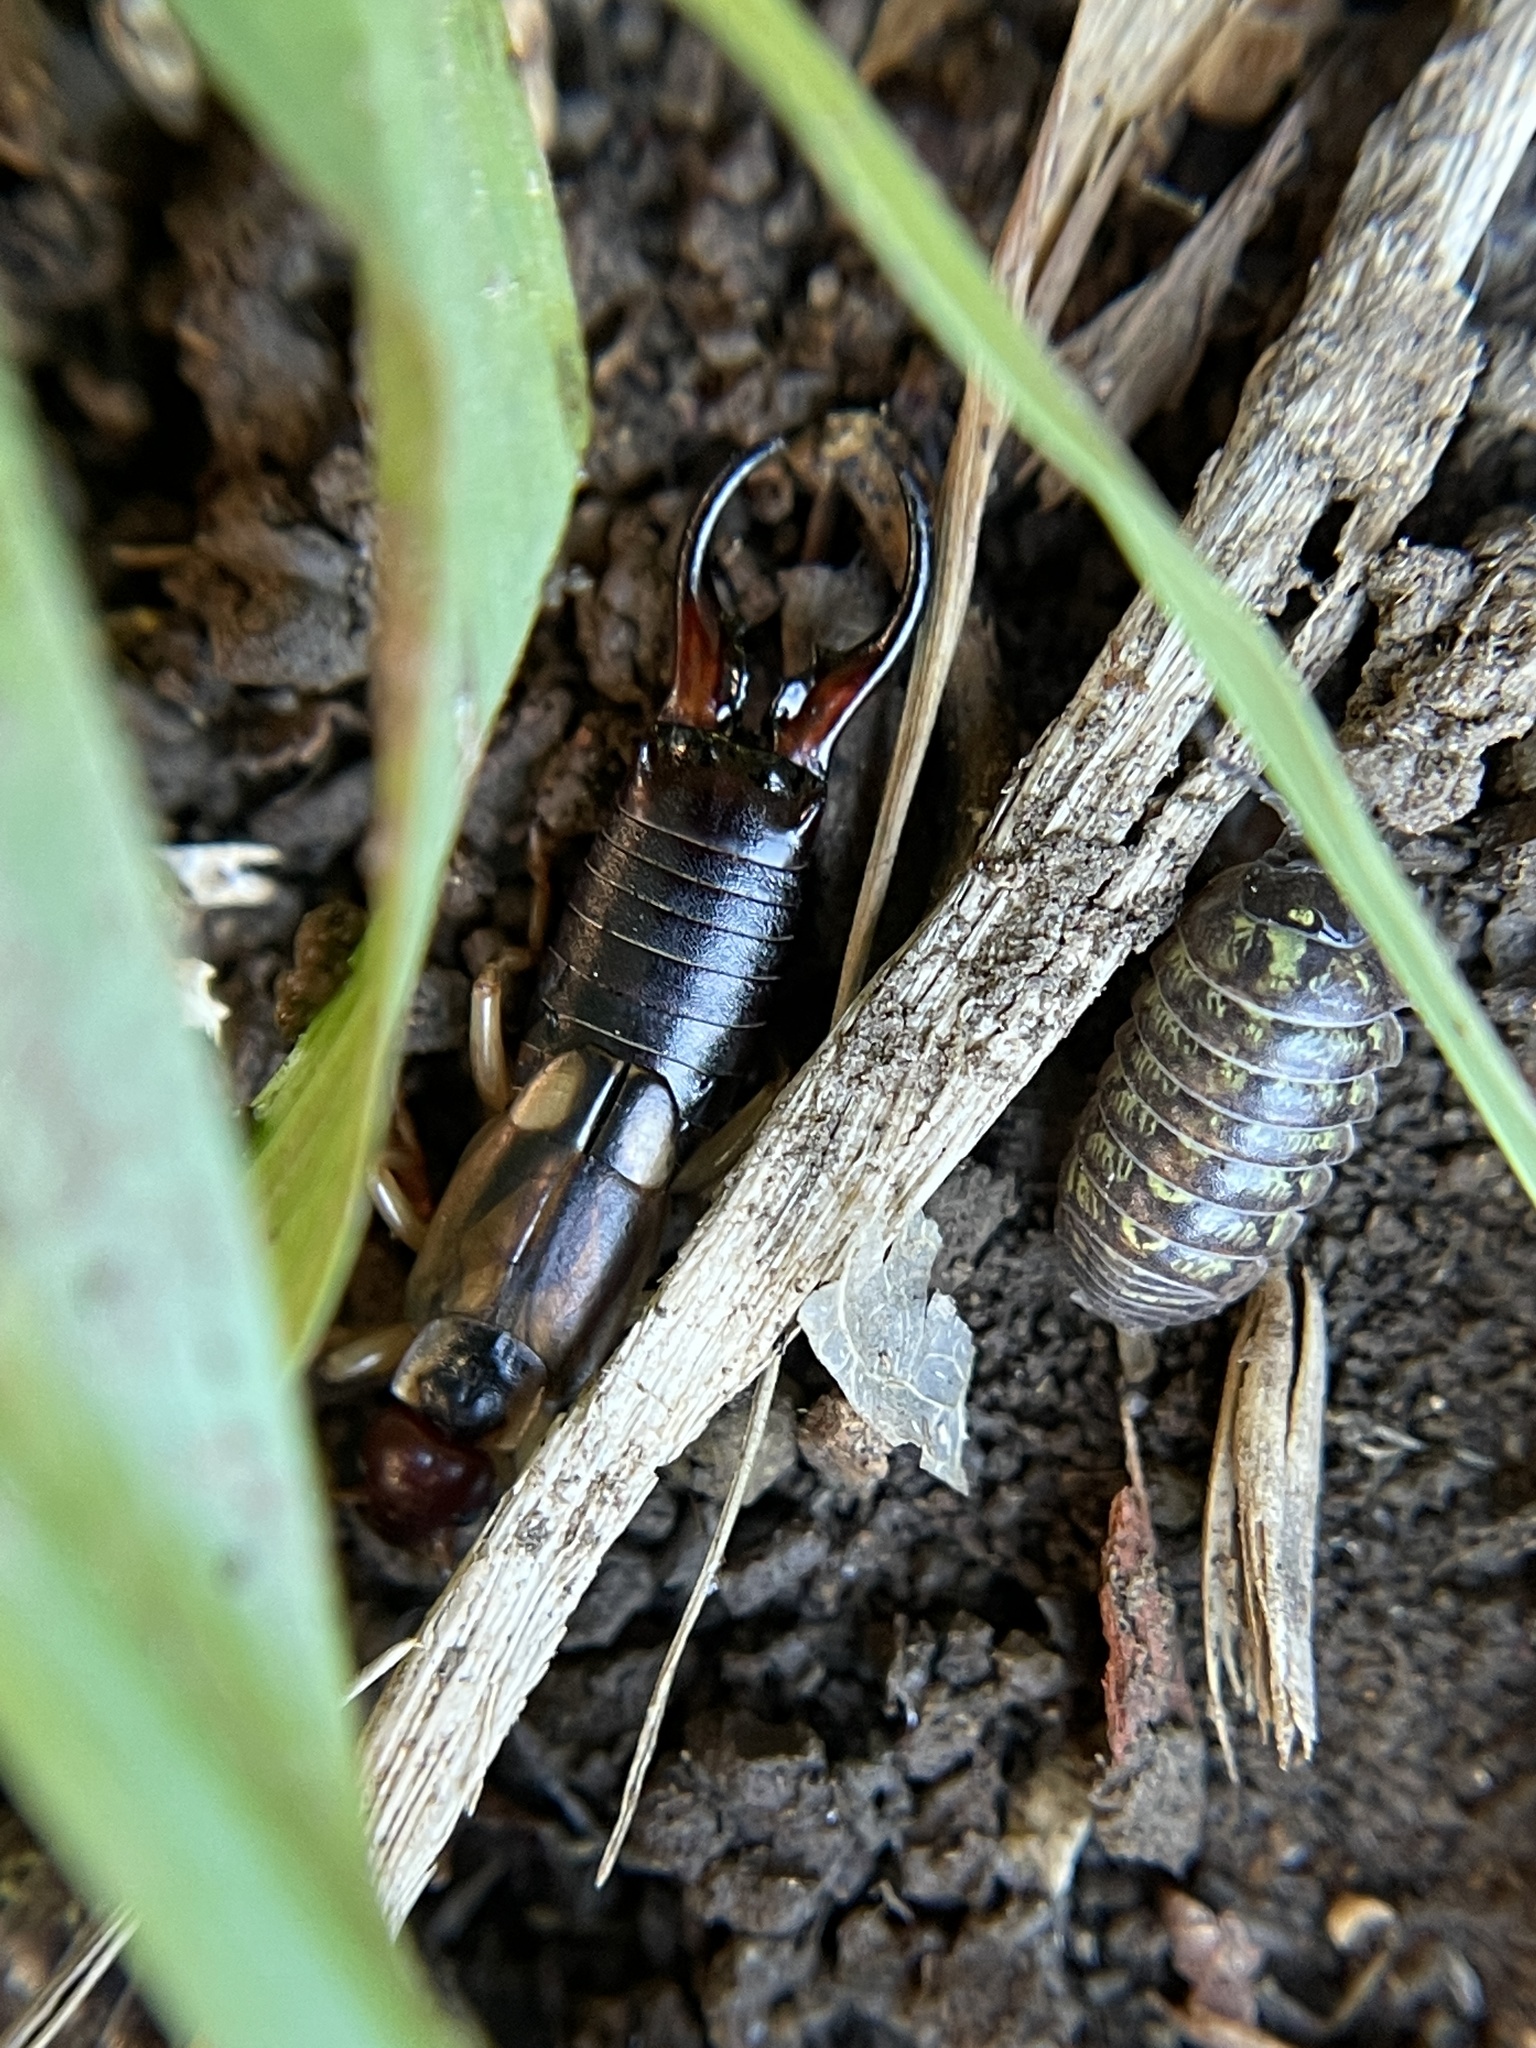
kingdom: Animalia
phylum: Arthropoda
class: Insecta
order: Dermaptera
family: Forficulidae
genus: Forficula
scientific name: Forficula
